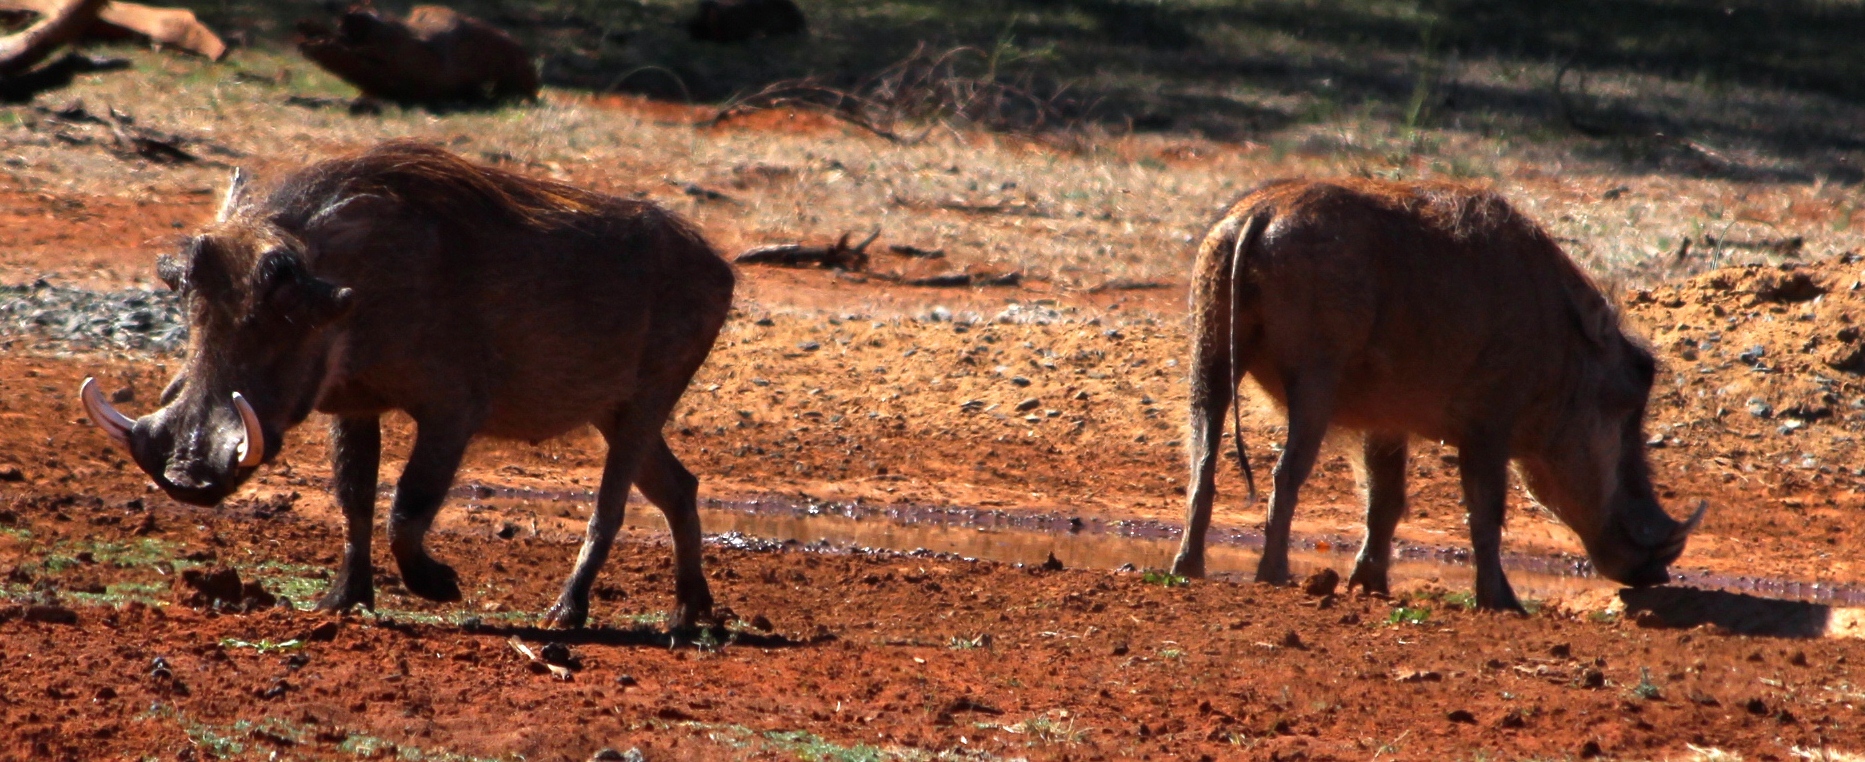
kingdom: Animalia
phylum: Chordata
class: Mammalia
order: Artiodactyla
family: Suidae
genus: Phacochoerus
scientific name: Phacochoerus africanus
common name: Common warthog
